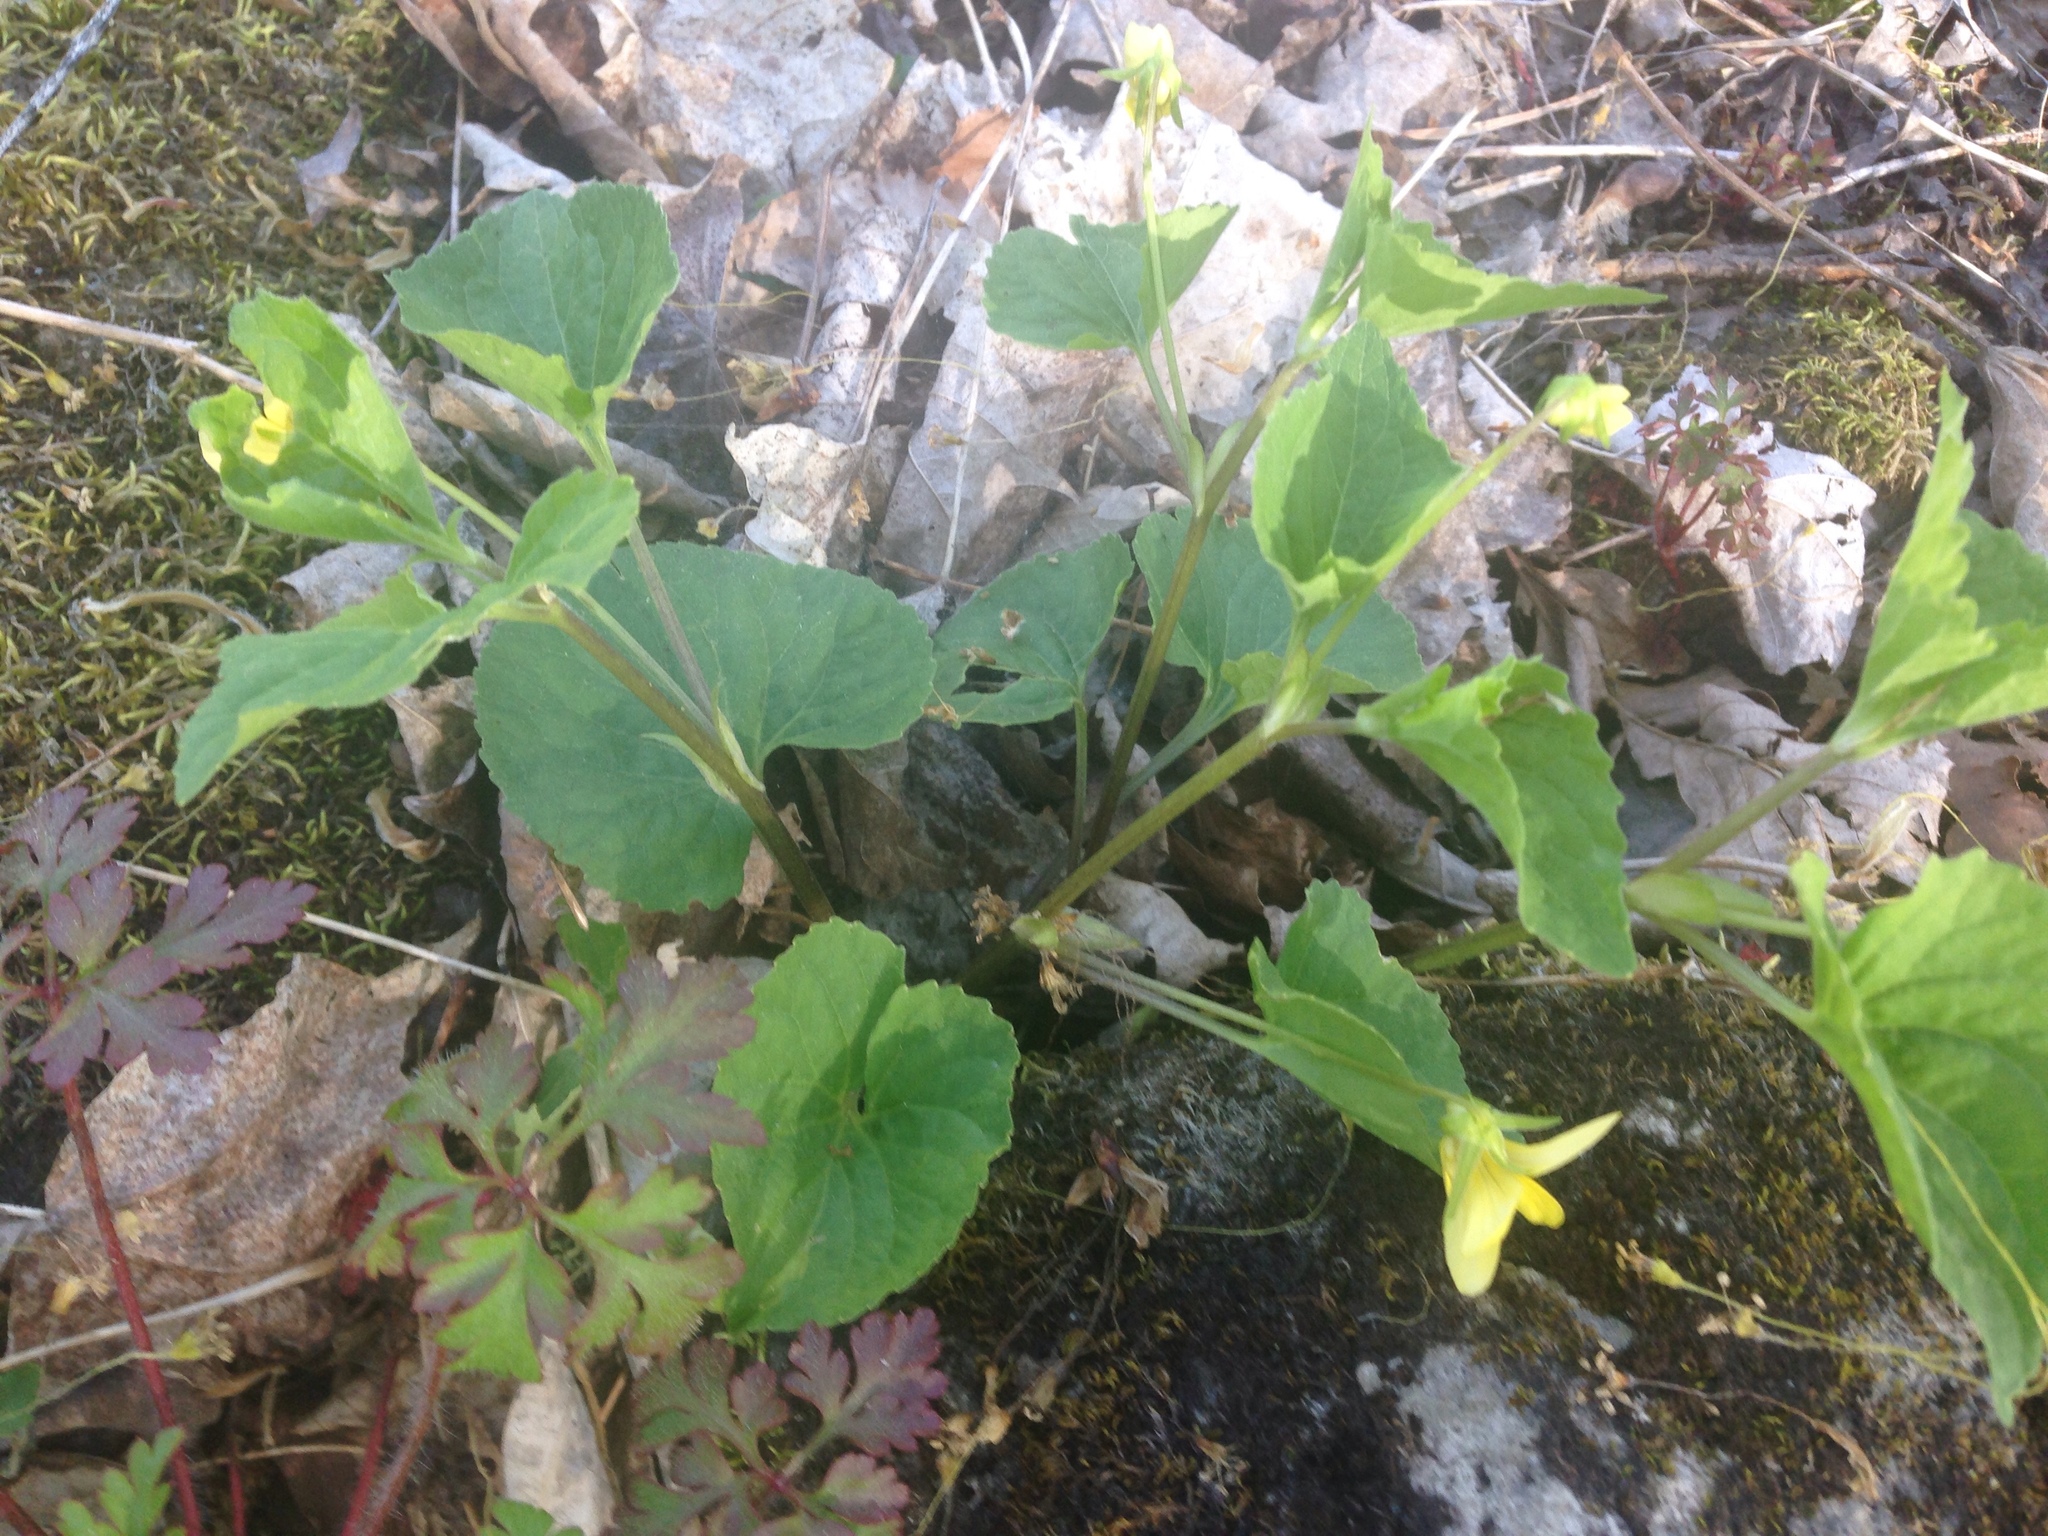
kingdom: Plantae
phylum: Tracheophyta
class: Magnoliopsida
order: Malpighiales
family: Violaceae
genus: Viola
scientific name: Viola eriocarpa
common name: Smooth yellow violet
